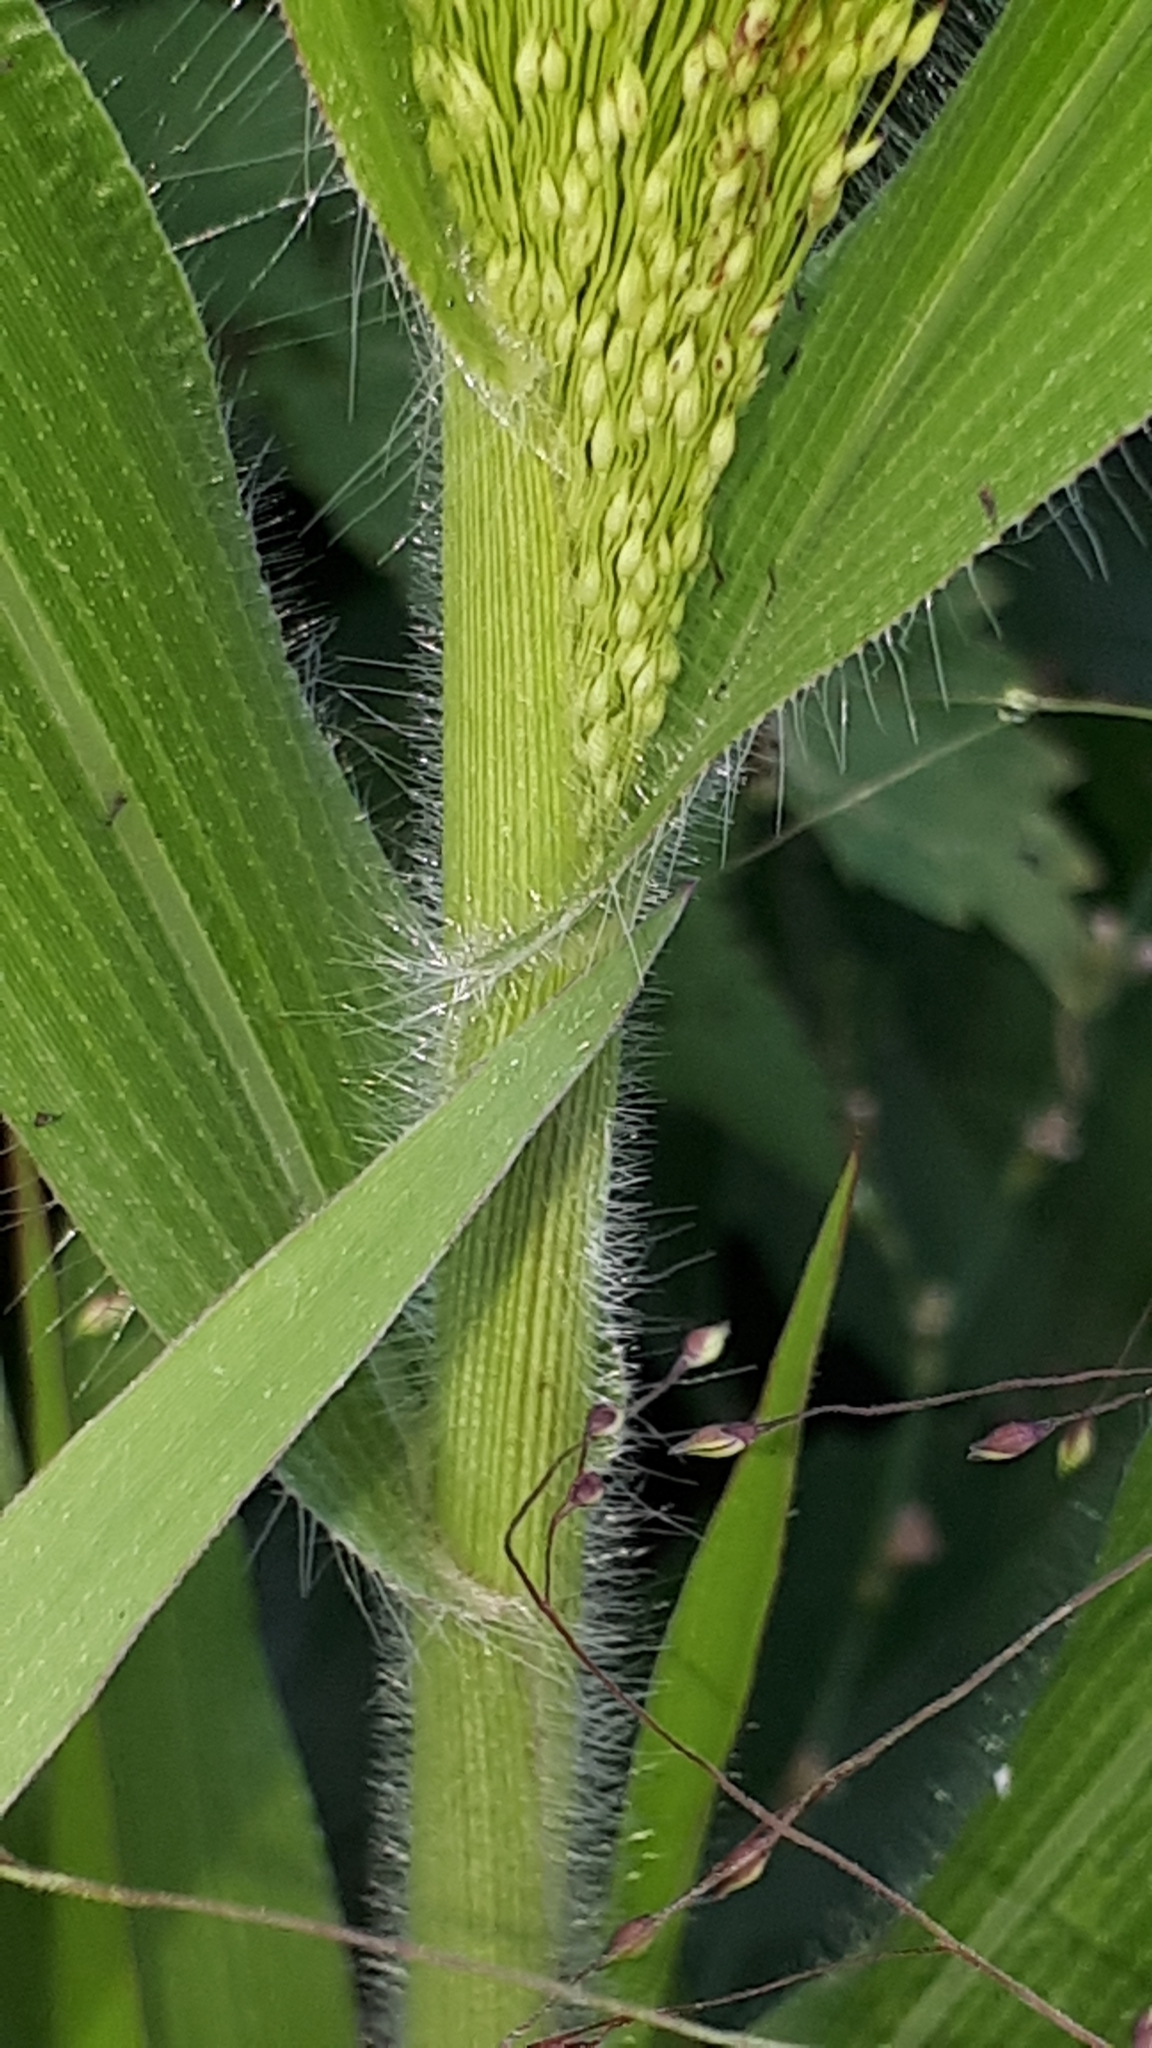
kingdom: Plantae
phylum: Tracheophyta
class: Liliopsida
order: Poales
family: Poaceae
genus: Panicum
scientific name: Panicum capillare
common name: Witch-grass
